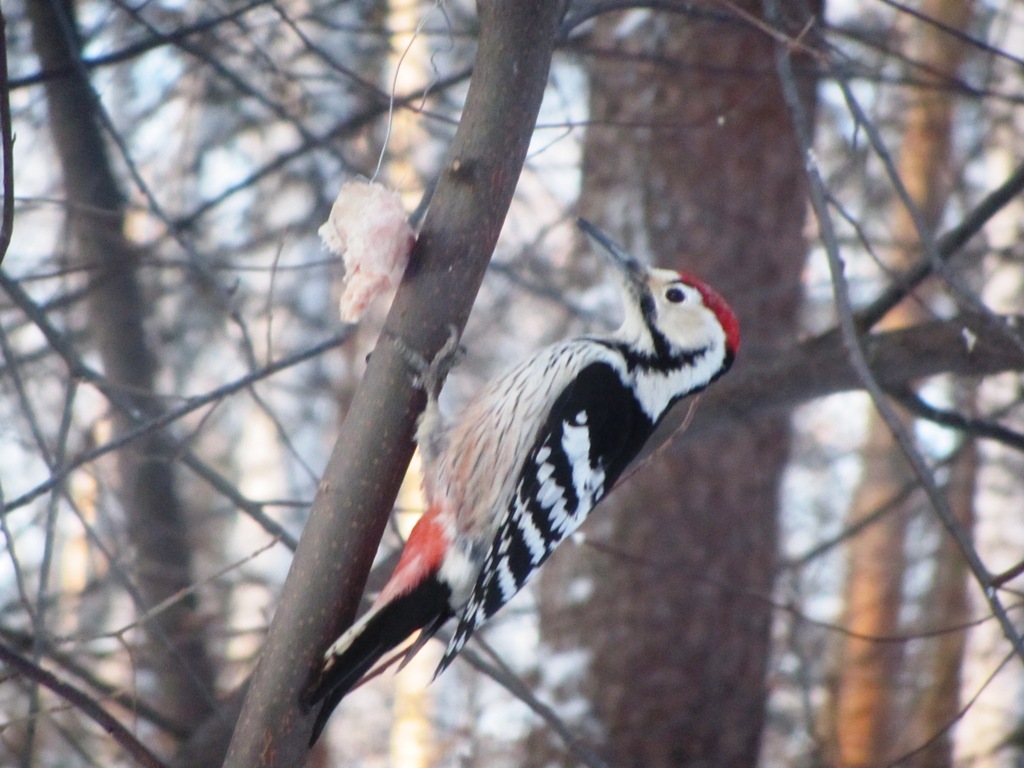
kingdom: Animalia
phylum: Chordata
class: Aves
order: Piciformes
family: Picidae
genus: Dendrocopos
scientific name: Dendrocopos leucotos
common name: White-backed woodpecker
